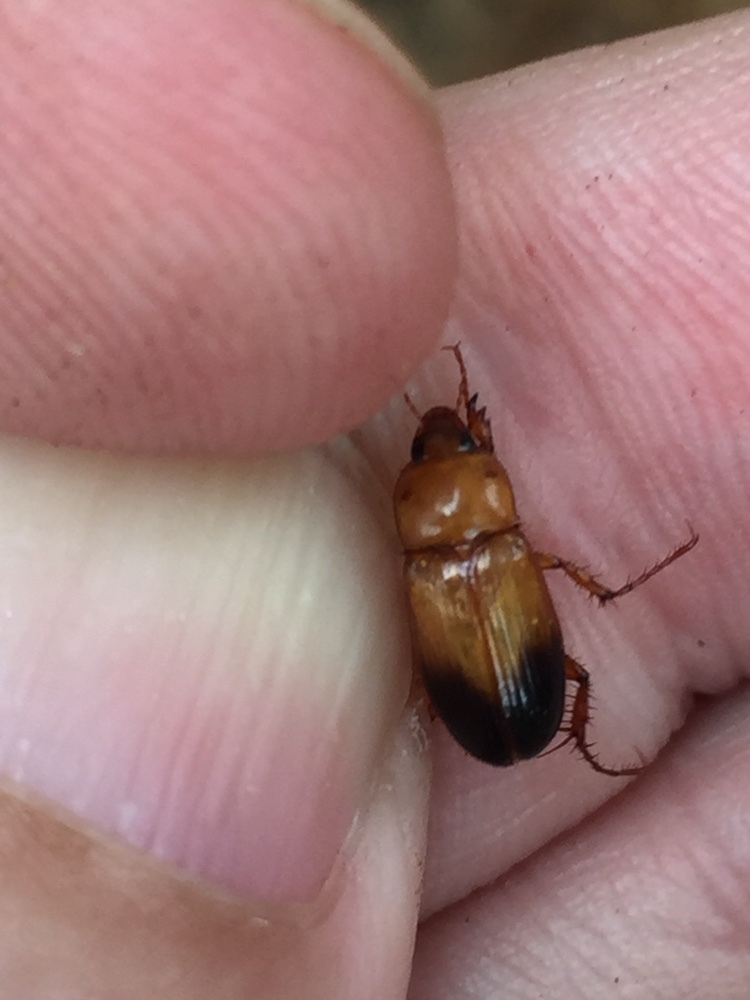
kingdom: Animalia
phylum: Arthropoda
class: Insecta
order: Coleoptera
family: Scarabaeidae
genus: Phyllotocus
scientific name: Phyllotocus macleayi
